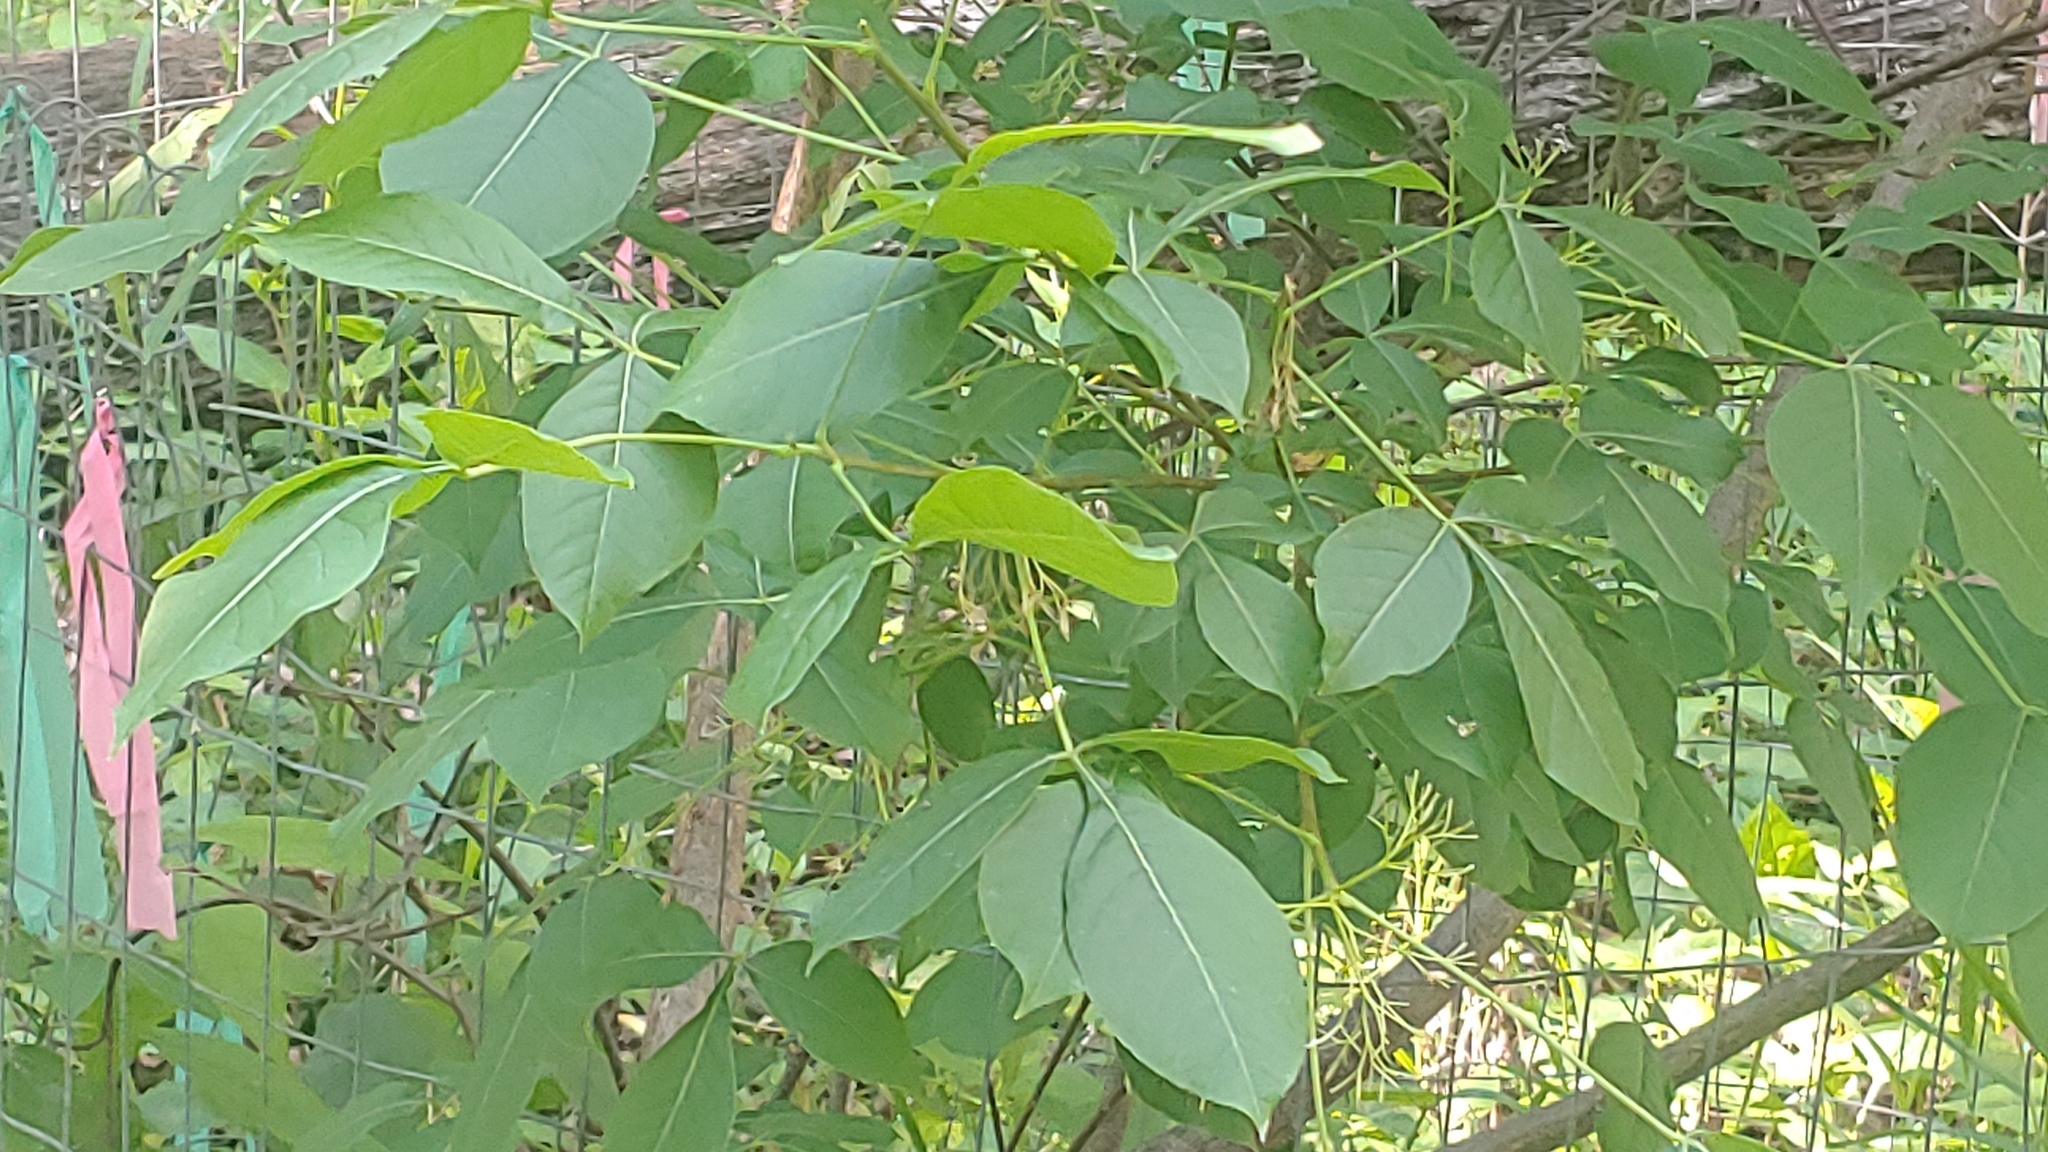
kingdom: Plantae
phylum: Tracheophyta
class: Magnoliopsida
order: Sapindales
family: Rutaceae
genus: Ptelea
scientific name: Ptelea trifoliata
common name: Common hop-tree
